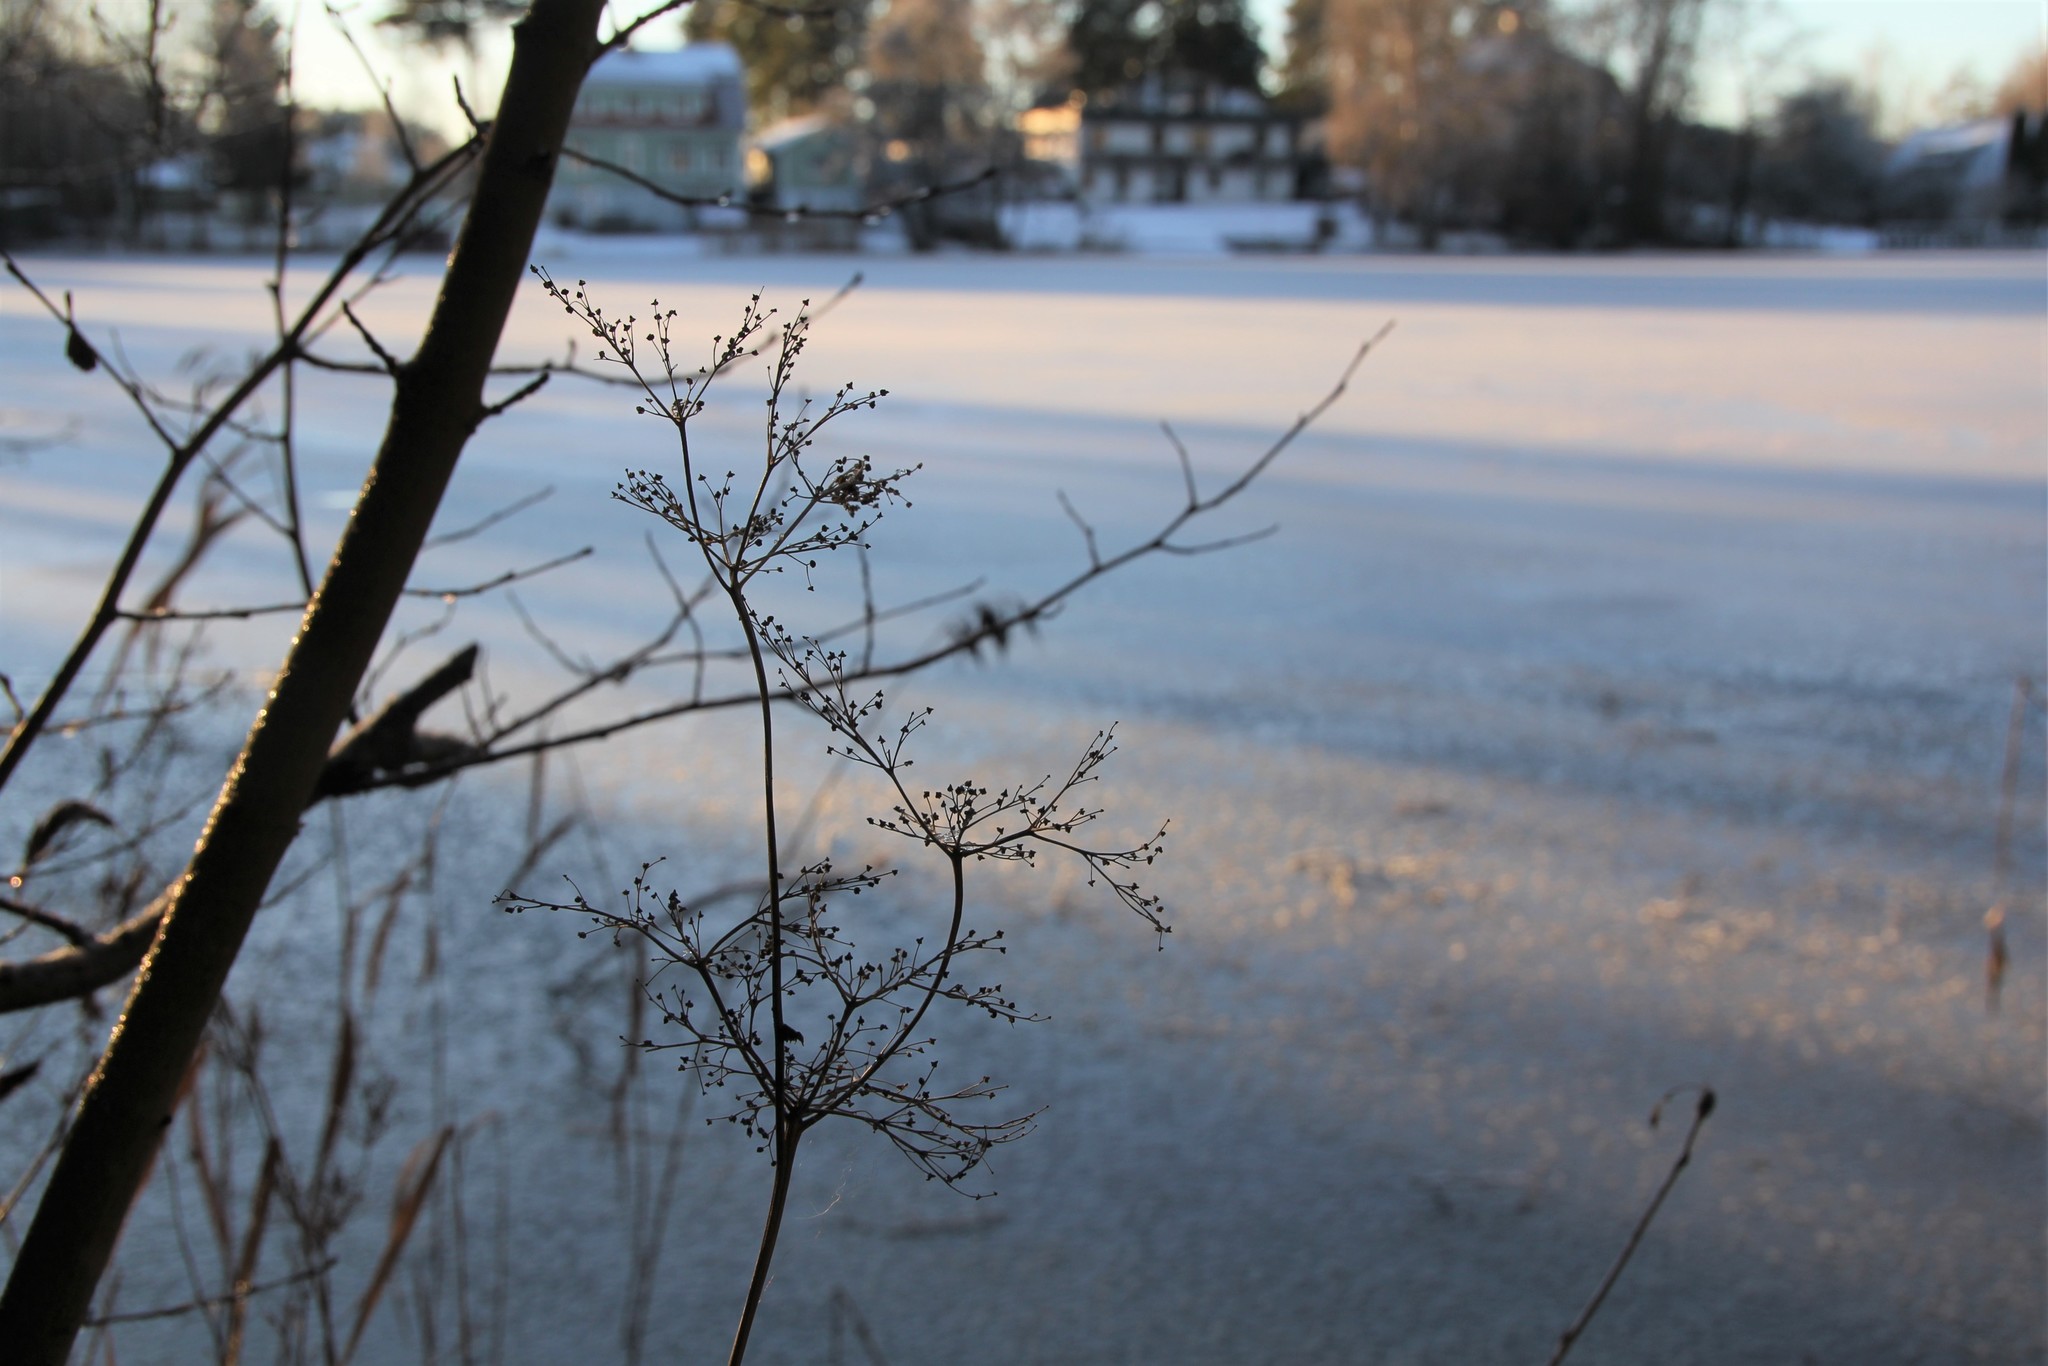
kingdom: Plantae
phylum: Tracheophyta
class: Magnoliopsida
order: Rosales
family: Rosaceae
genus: Filipendula
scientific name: Filipendula ulmaria
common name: Meadowsweet
